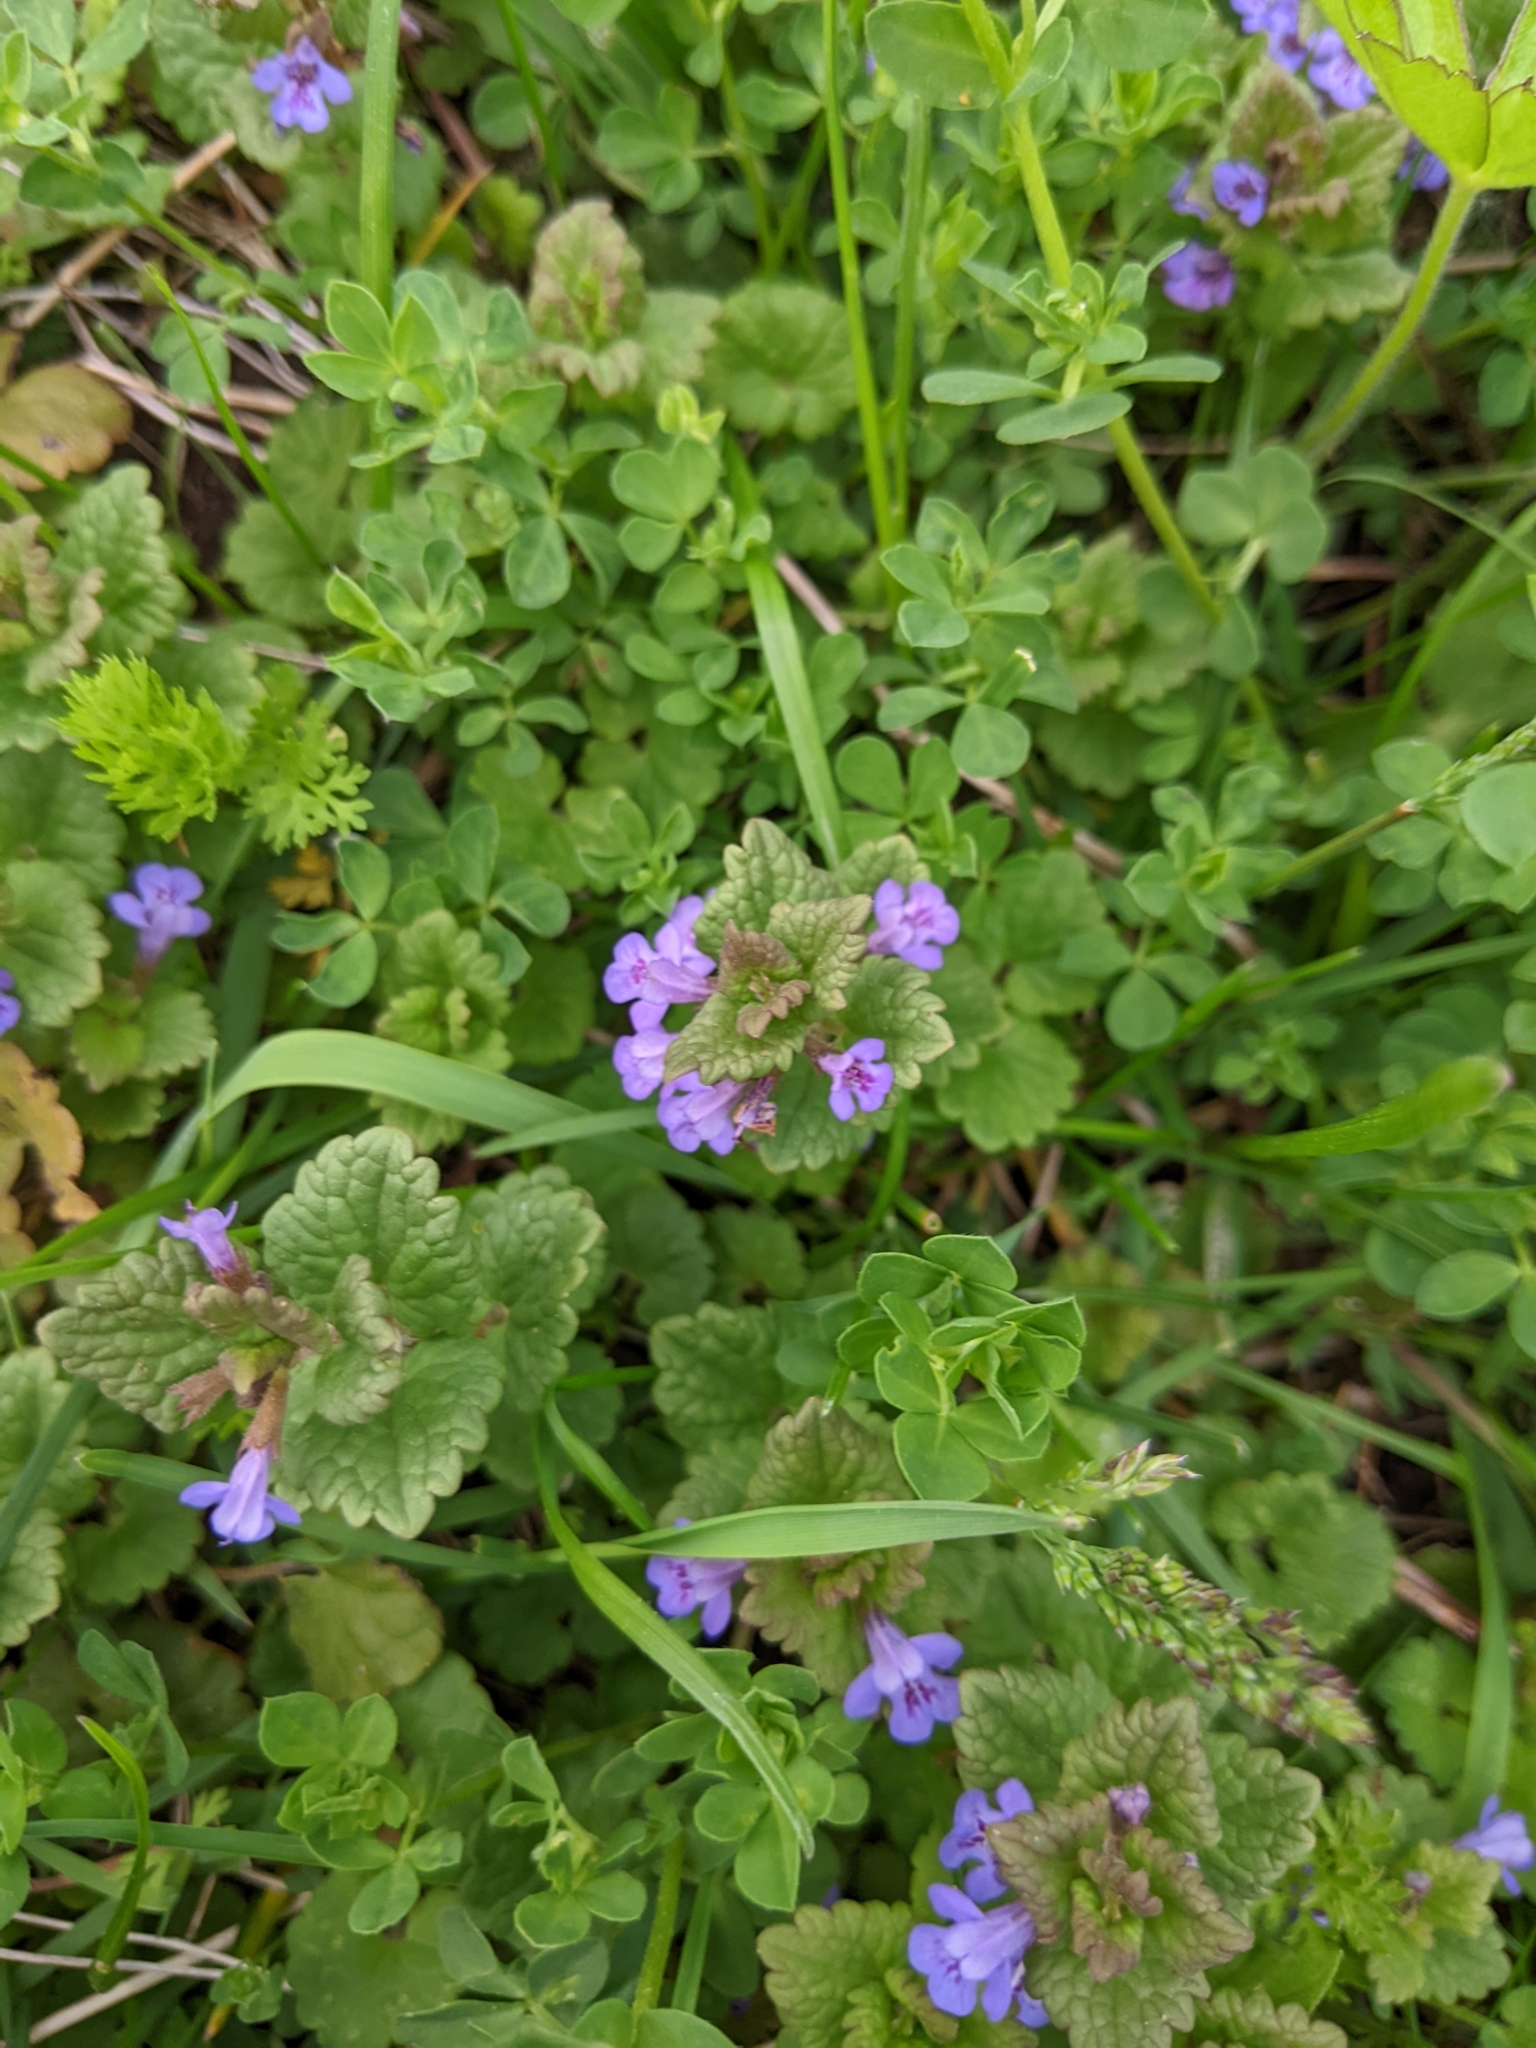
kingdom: Plantae
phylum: Tracheophyta
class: Magnoliopsida
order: Lamiales
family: Lamiaceae
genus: Glechoma
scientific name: Glechoma hederacea
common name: Ground ivy
